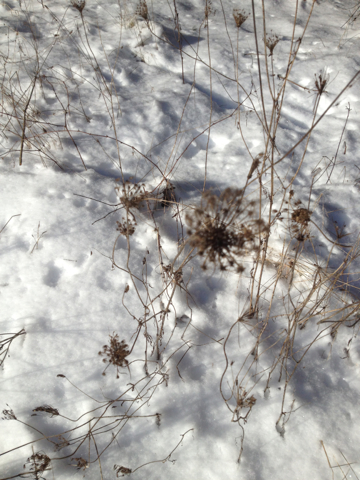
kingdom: Plantae
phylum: Tracheophyta
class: Magnoliopsida
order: Apiales
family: Apiaceae
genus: Daucus
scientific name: Daucus carota
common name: Wild carrot
